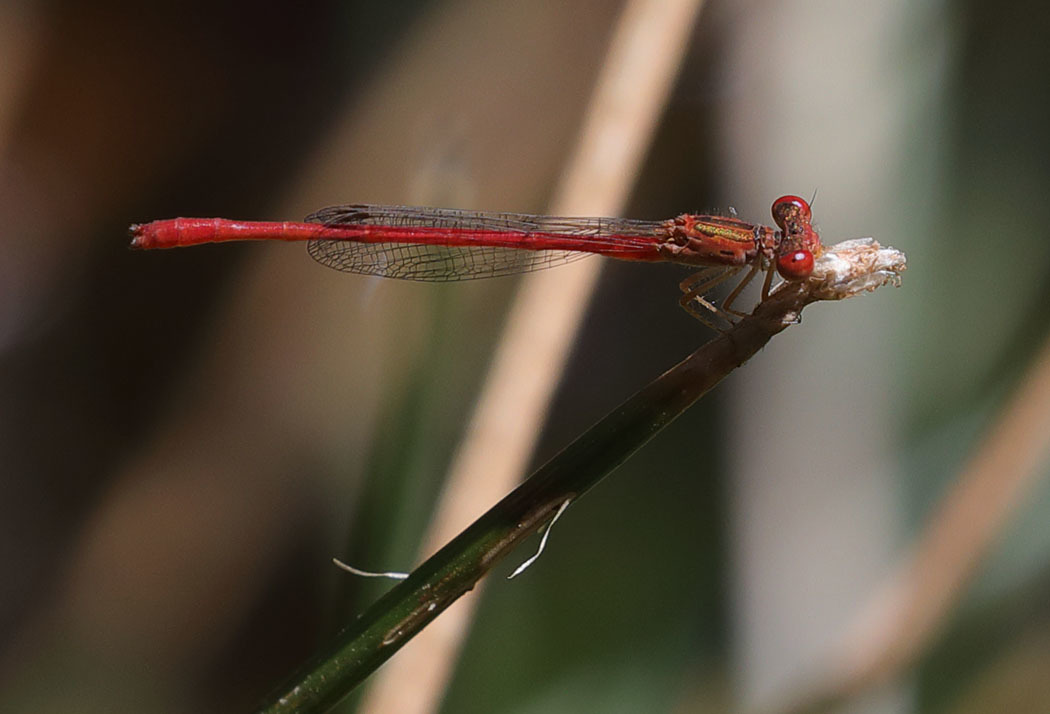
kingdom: Animalia
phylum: Arthropoda
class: Insecta
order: Odonata
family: Coenagrionidae
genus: Telebasis
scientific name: Telebasis salva
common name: Desert firetail
